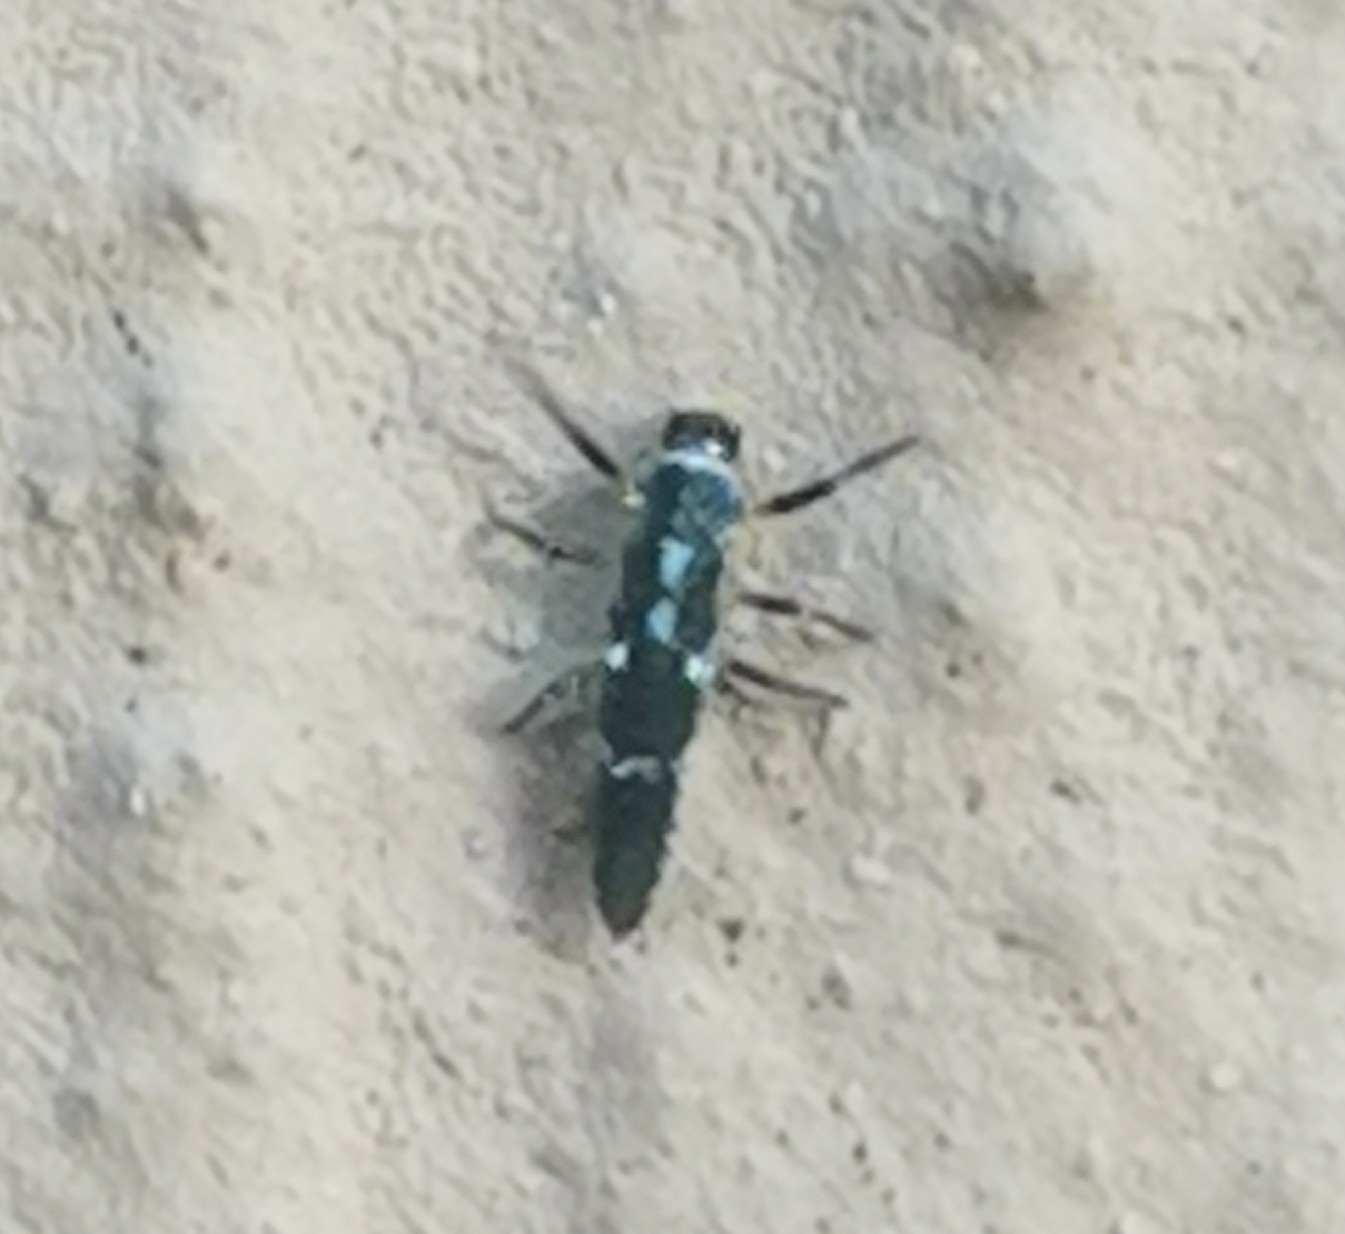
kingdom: Animalia
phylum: Arthropoda
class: Insecta
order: Coleoptera
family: Coccinellidae
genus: Propylaea
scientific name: Propylaea quatuordecimpunctata
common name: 14-spotted ladybird beetle
